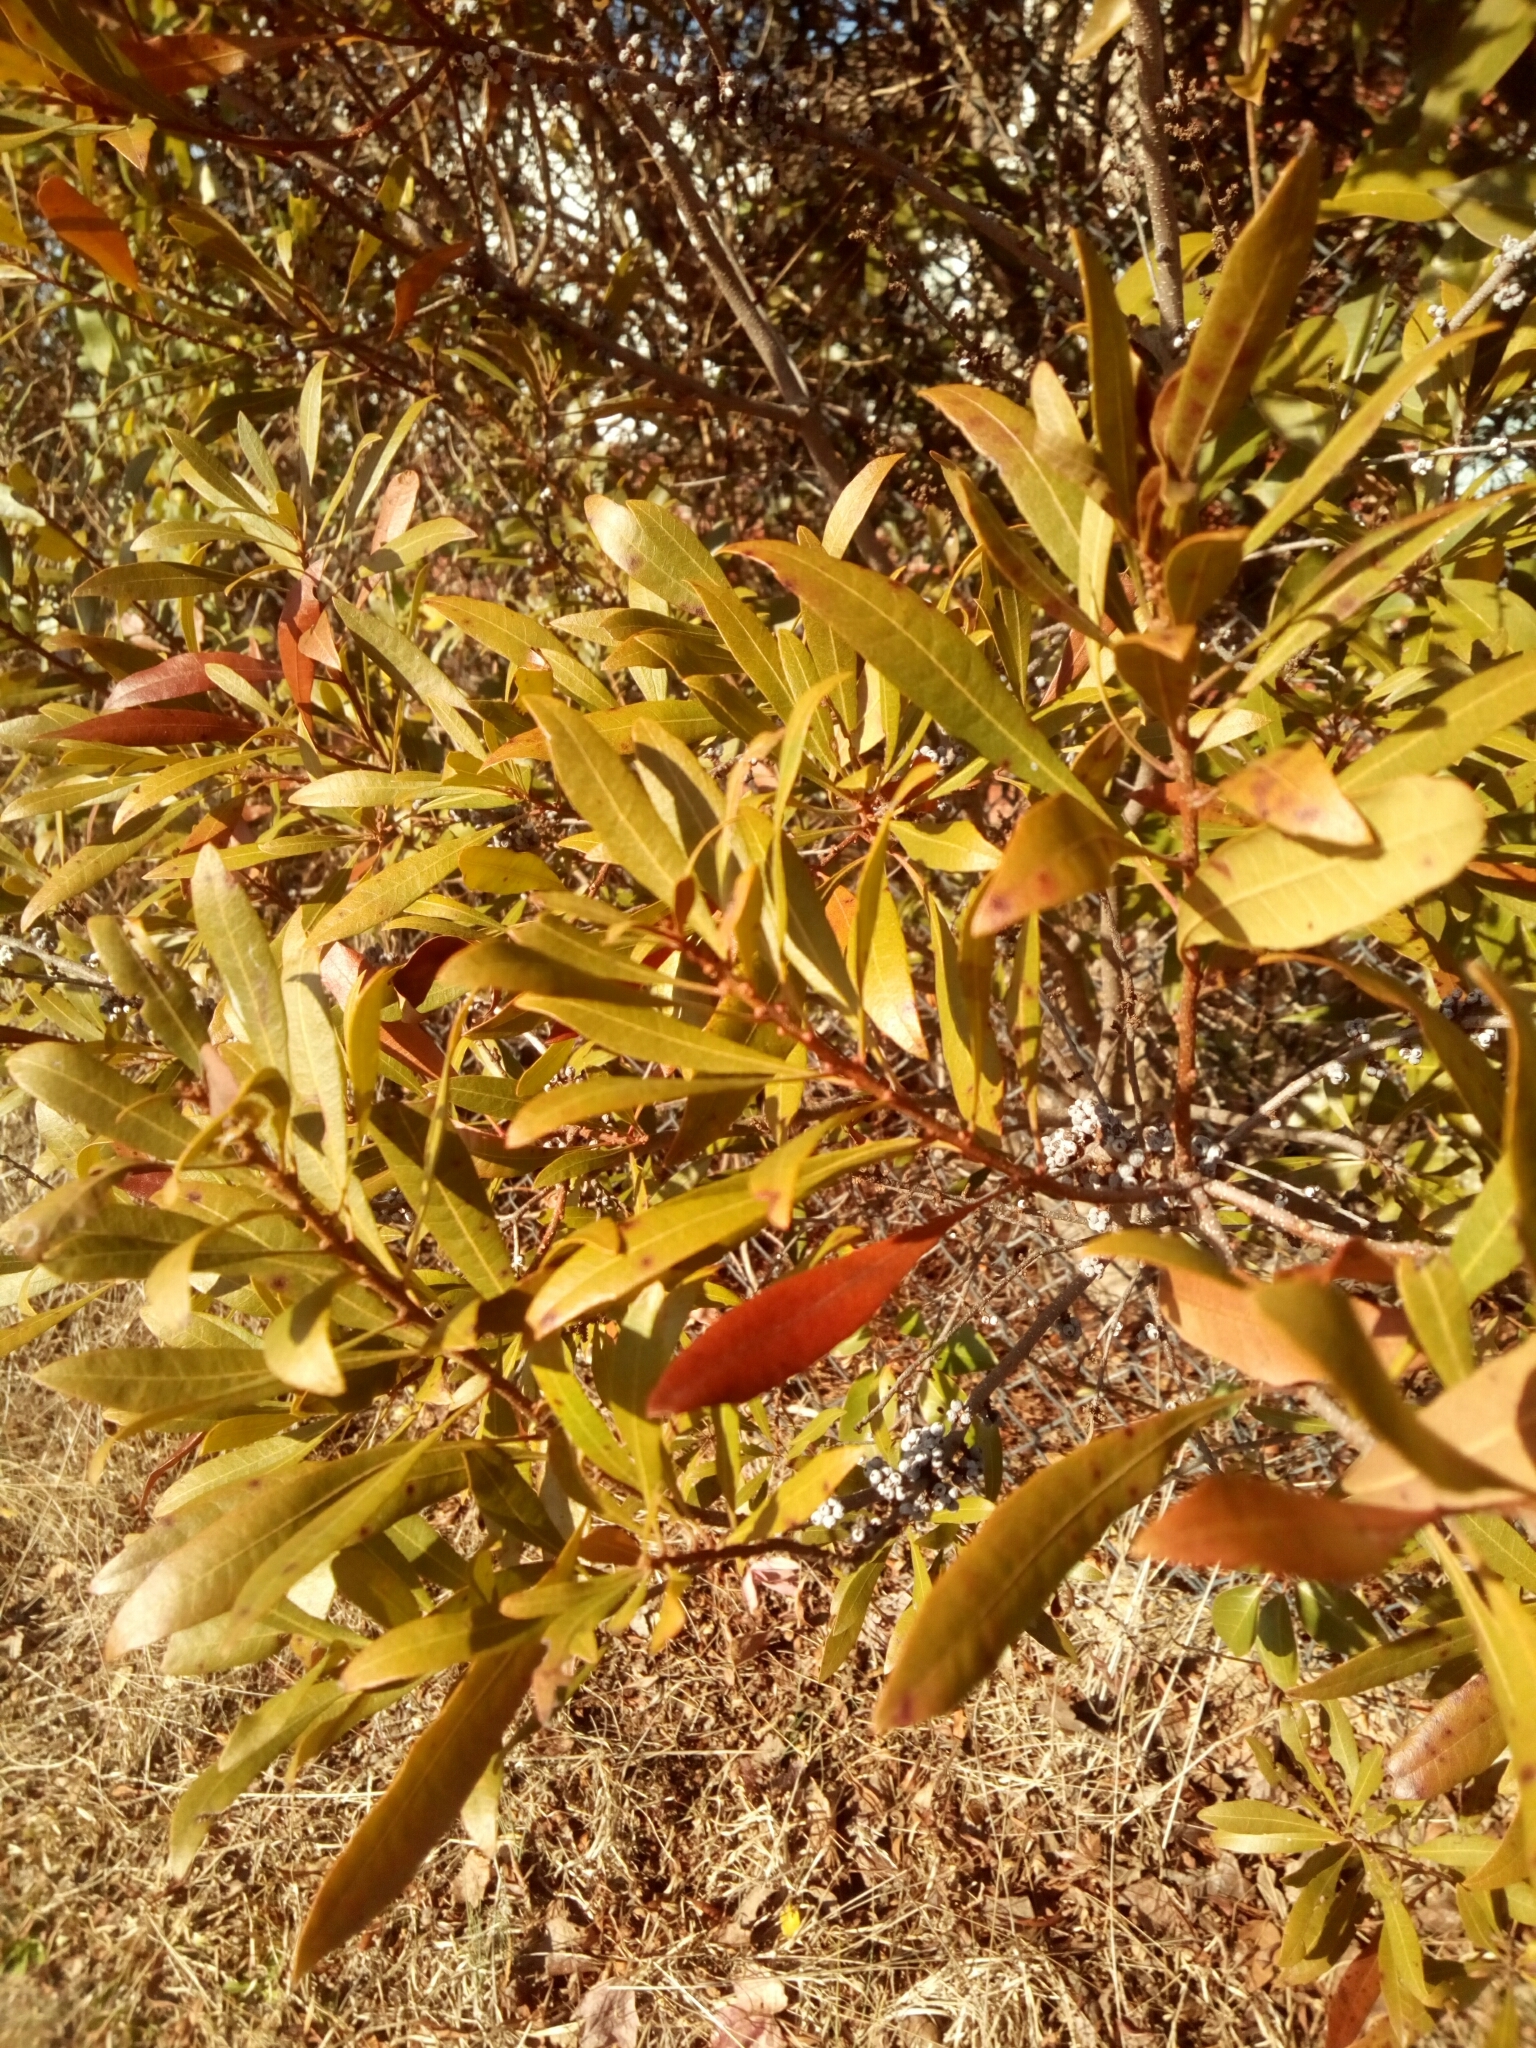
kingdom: Plantae
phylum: Tracheophyta
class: Magnoliopsida
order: Fagales
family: Myricaceae
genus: Morella
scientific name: Morella cerifera
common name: Wax myrtle
